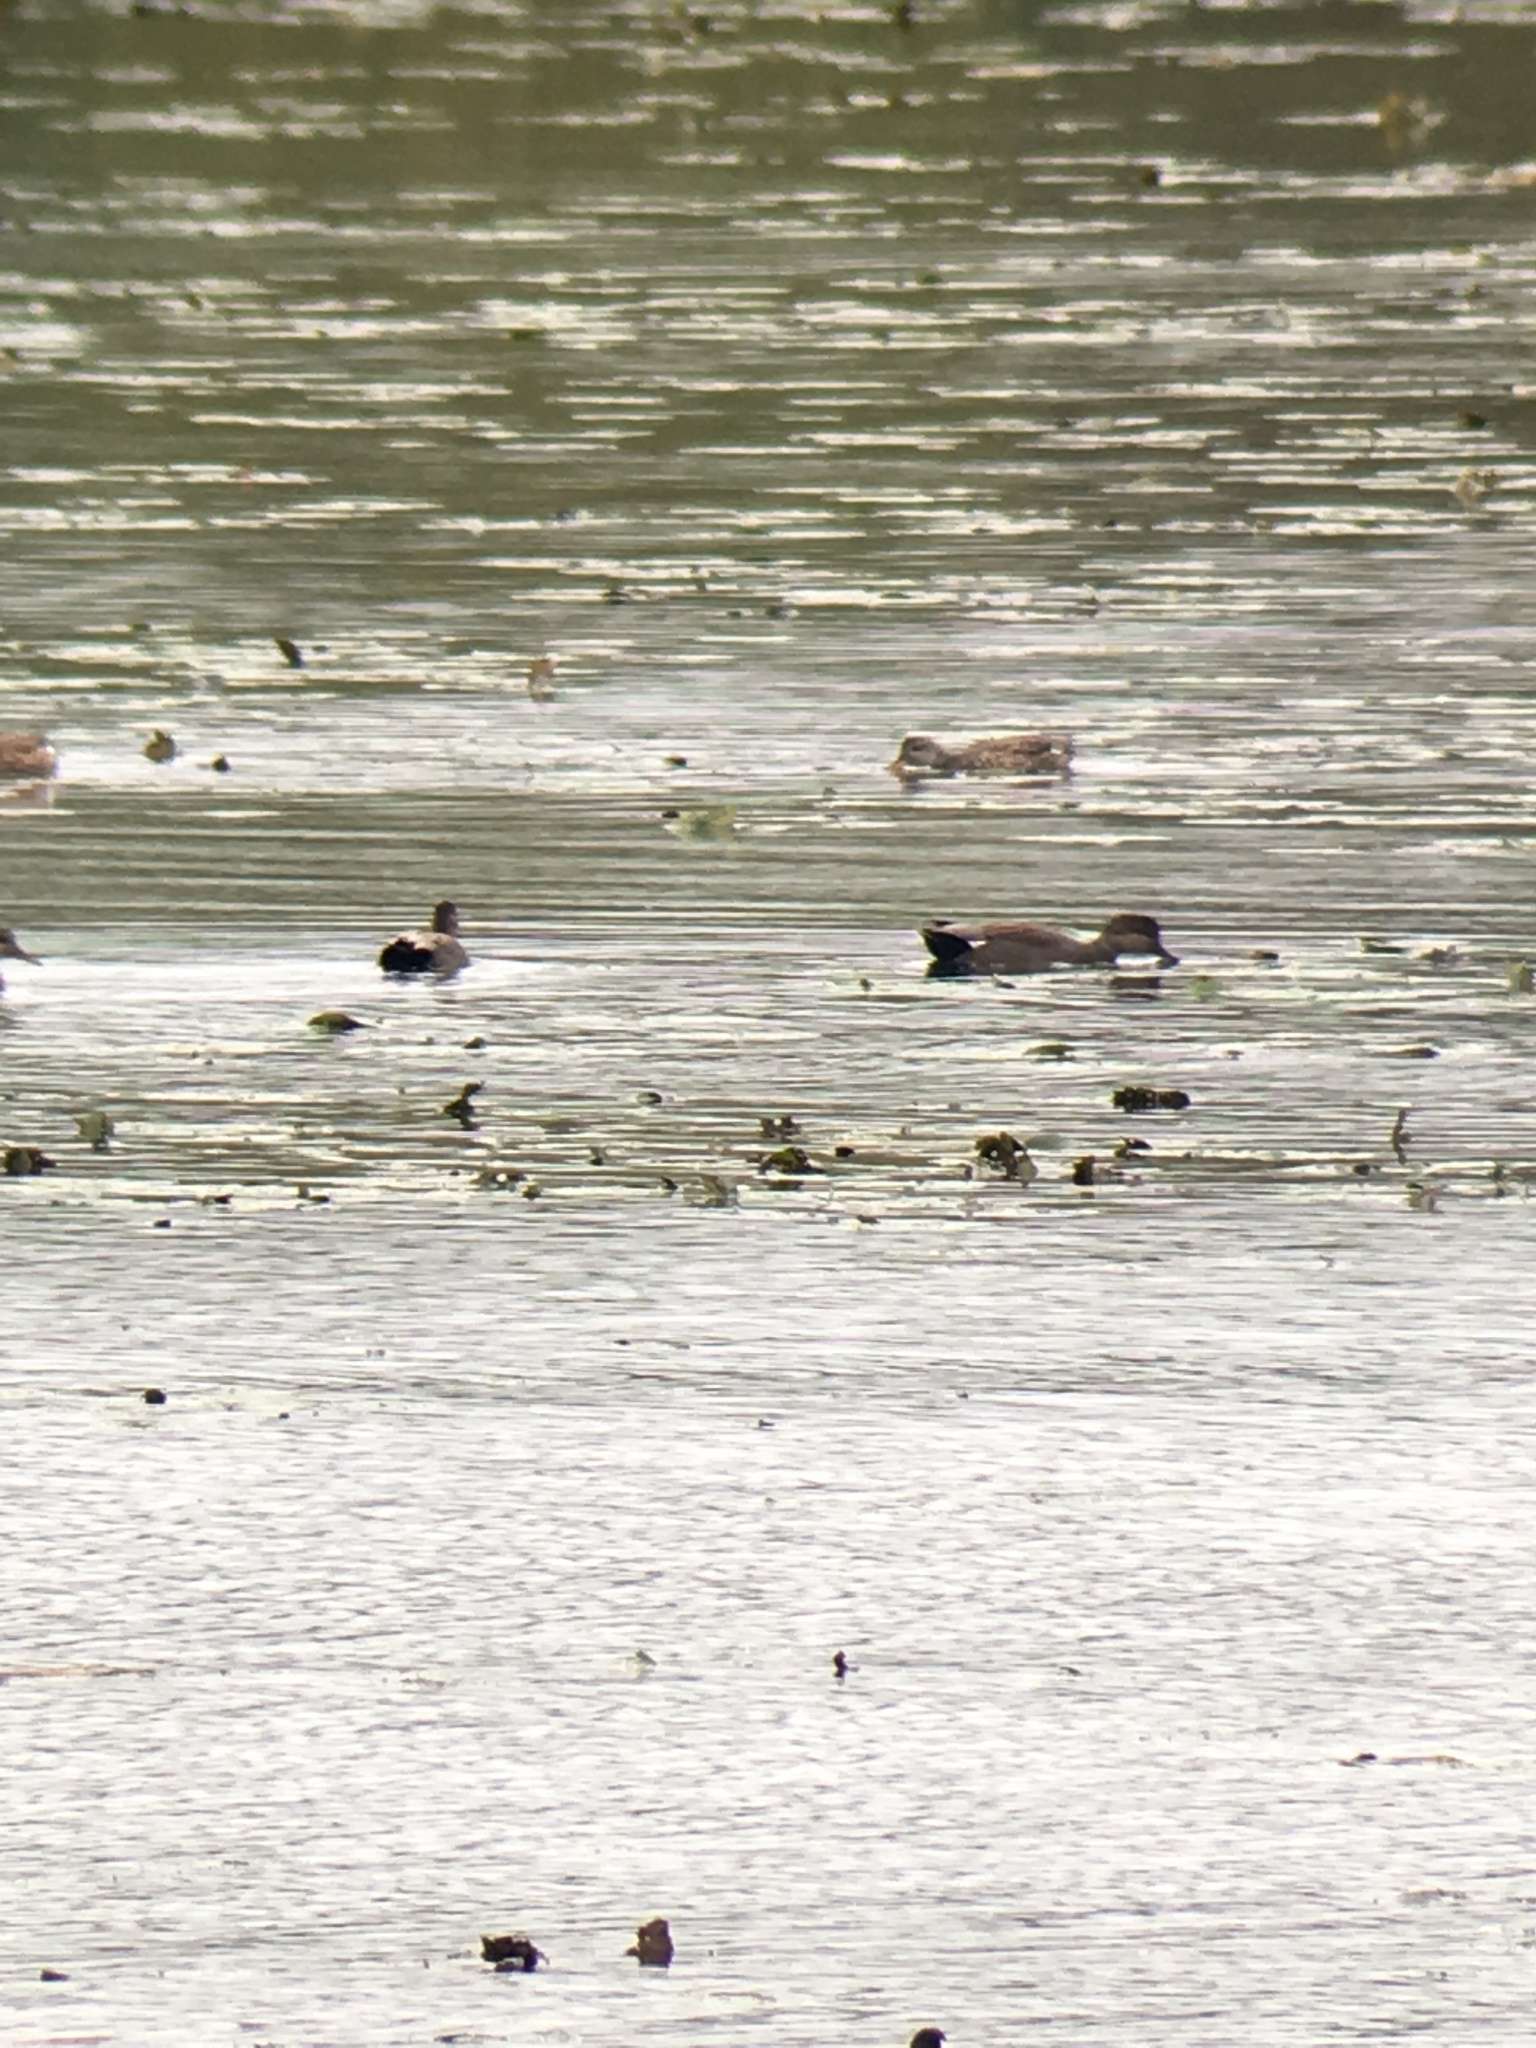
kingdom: Animalia
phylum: Chordata
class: Aves
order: Anseriformes
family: Anatidae
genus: Mareca
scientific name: Mareca strepera
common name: Gadwall
